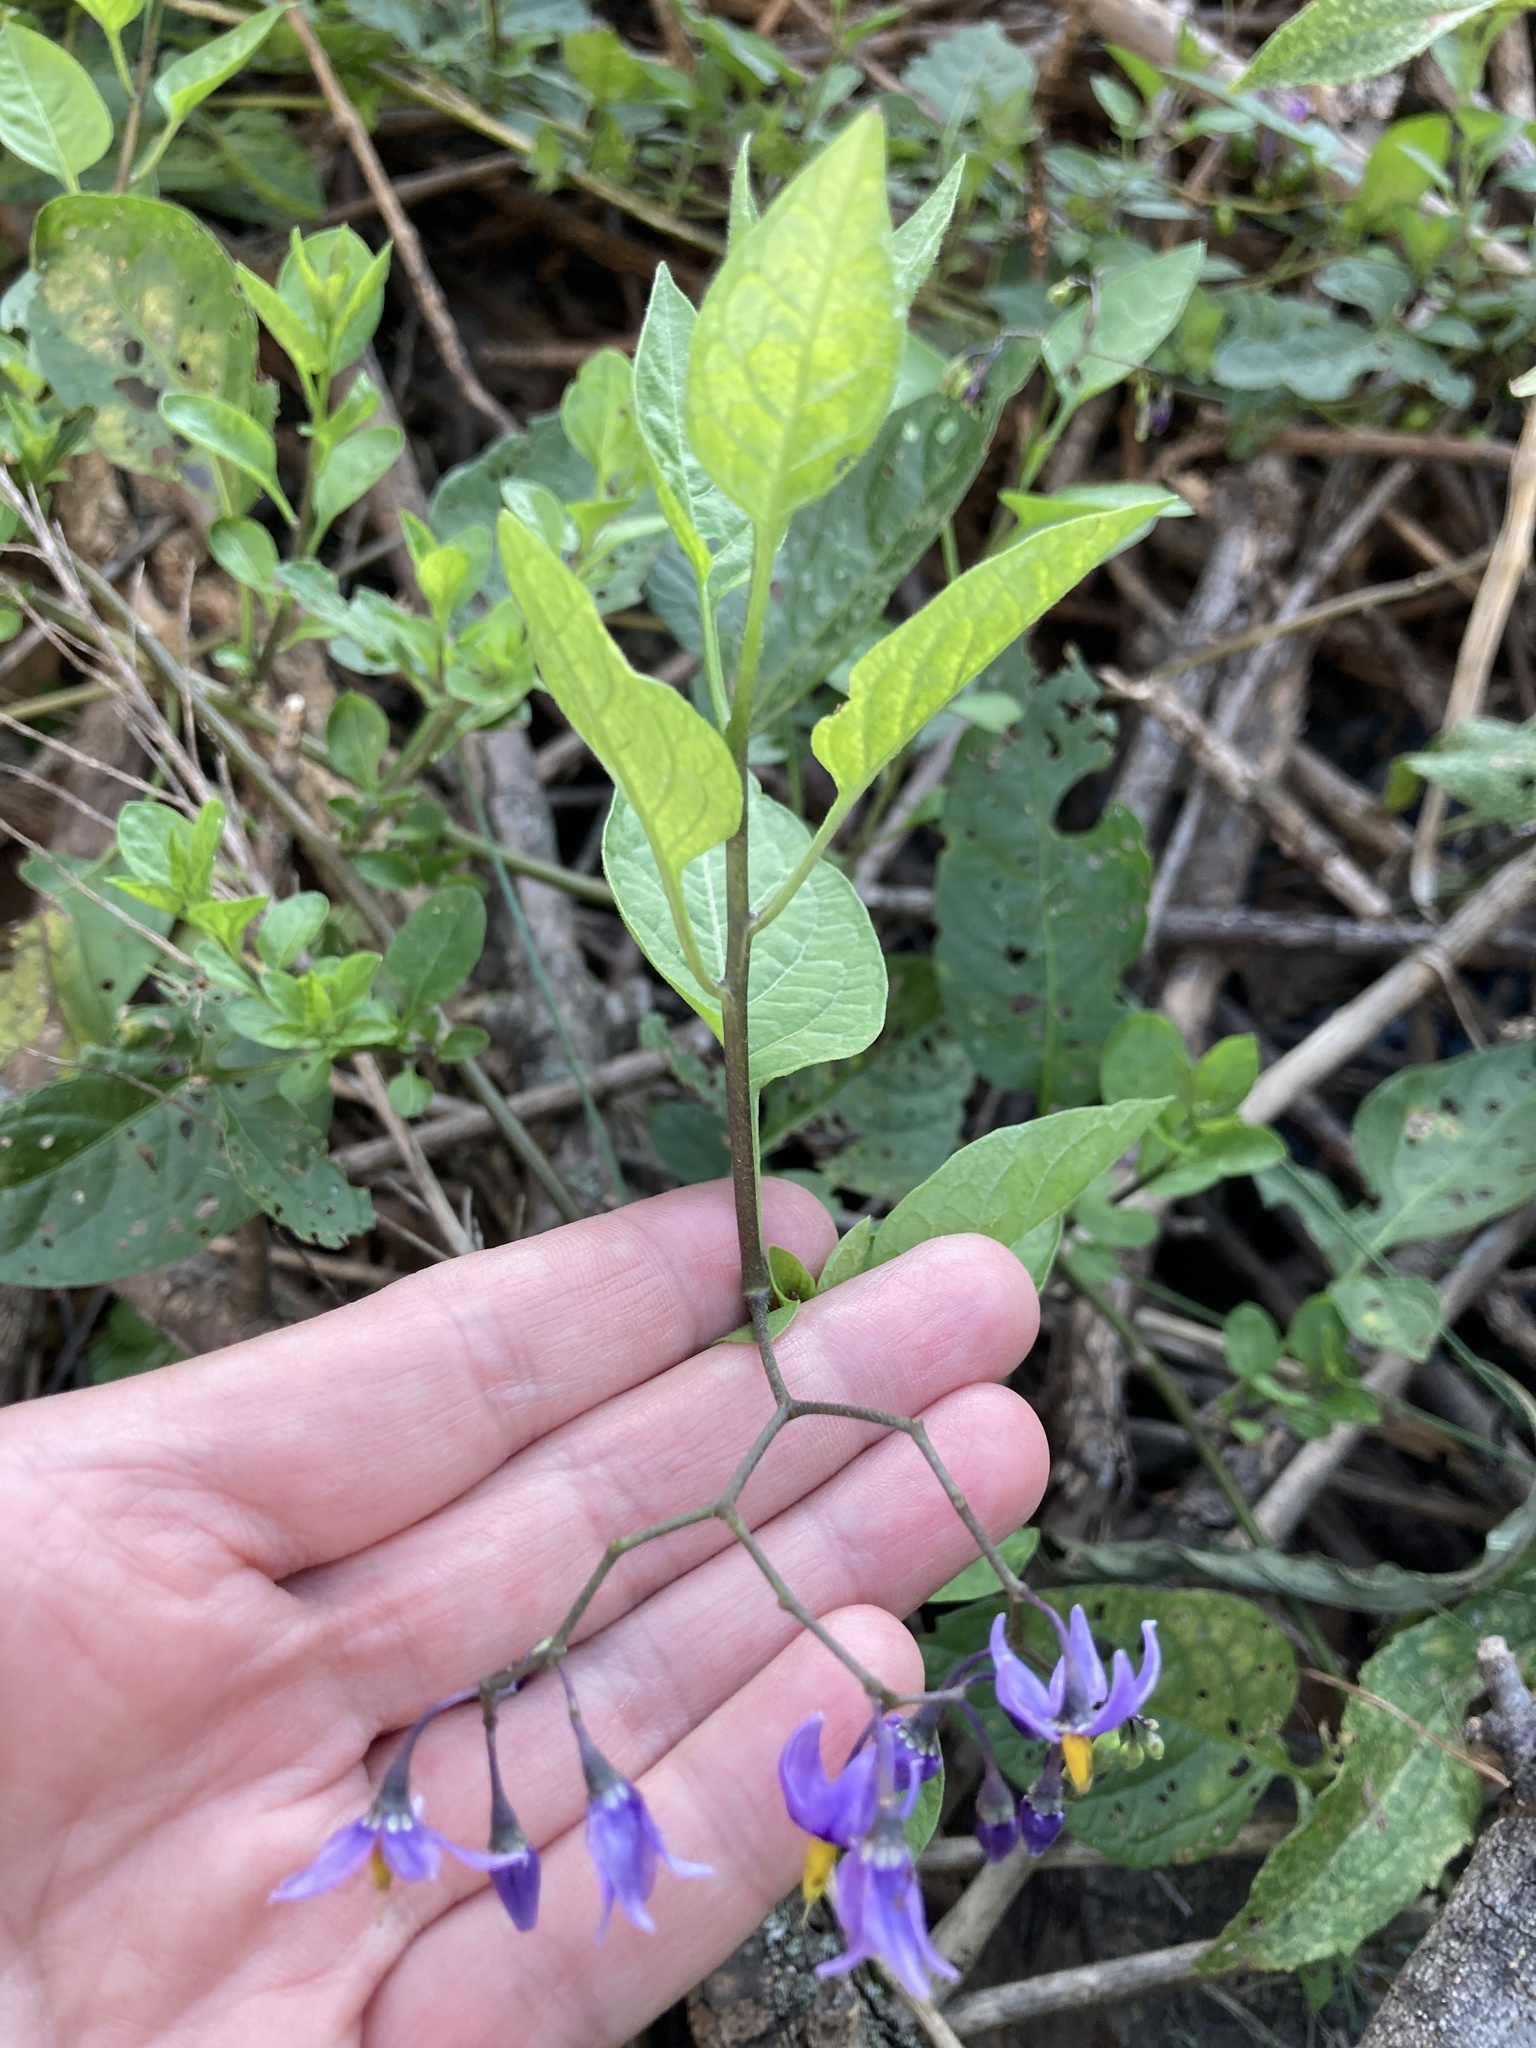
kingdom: Plantae
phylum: Tracheophyta
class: Magnoliopsida
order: Solanales
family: Solanaceae
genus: Solanum
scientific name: Solanum dulcamara
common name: Climbing nightshade
